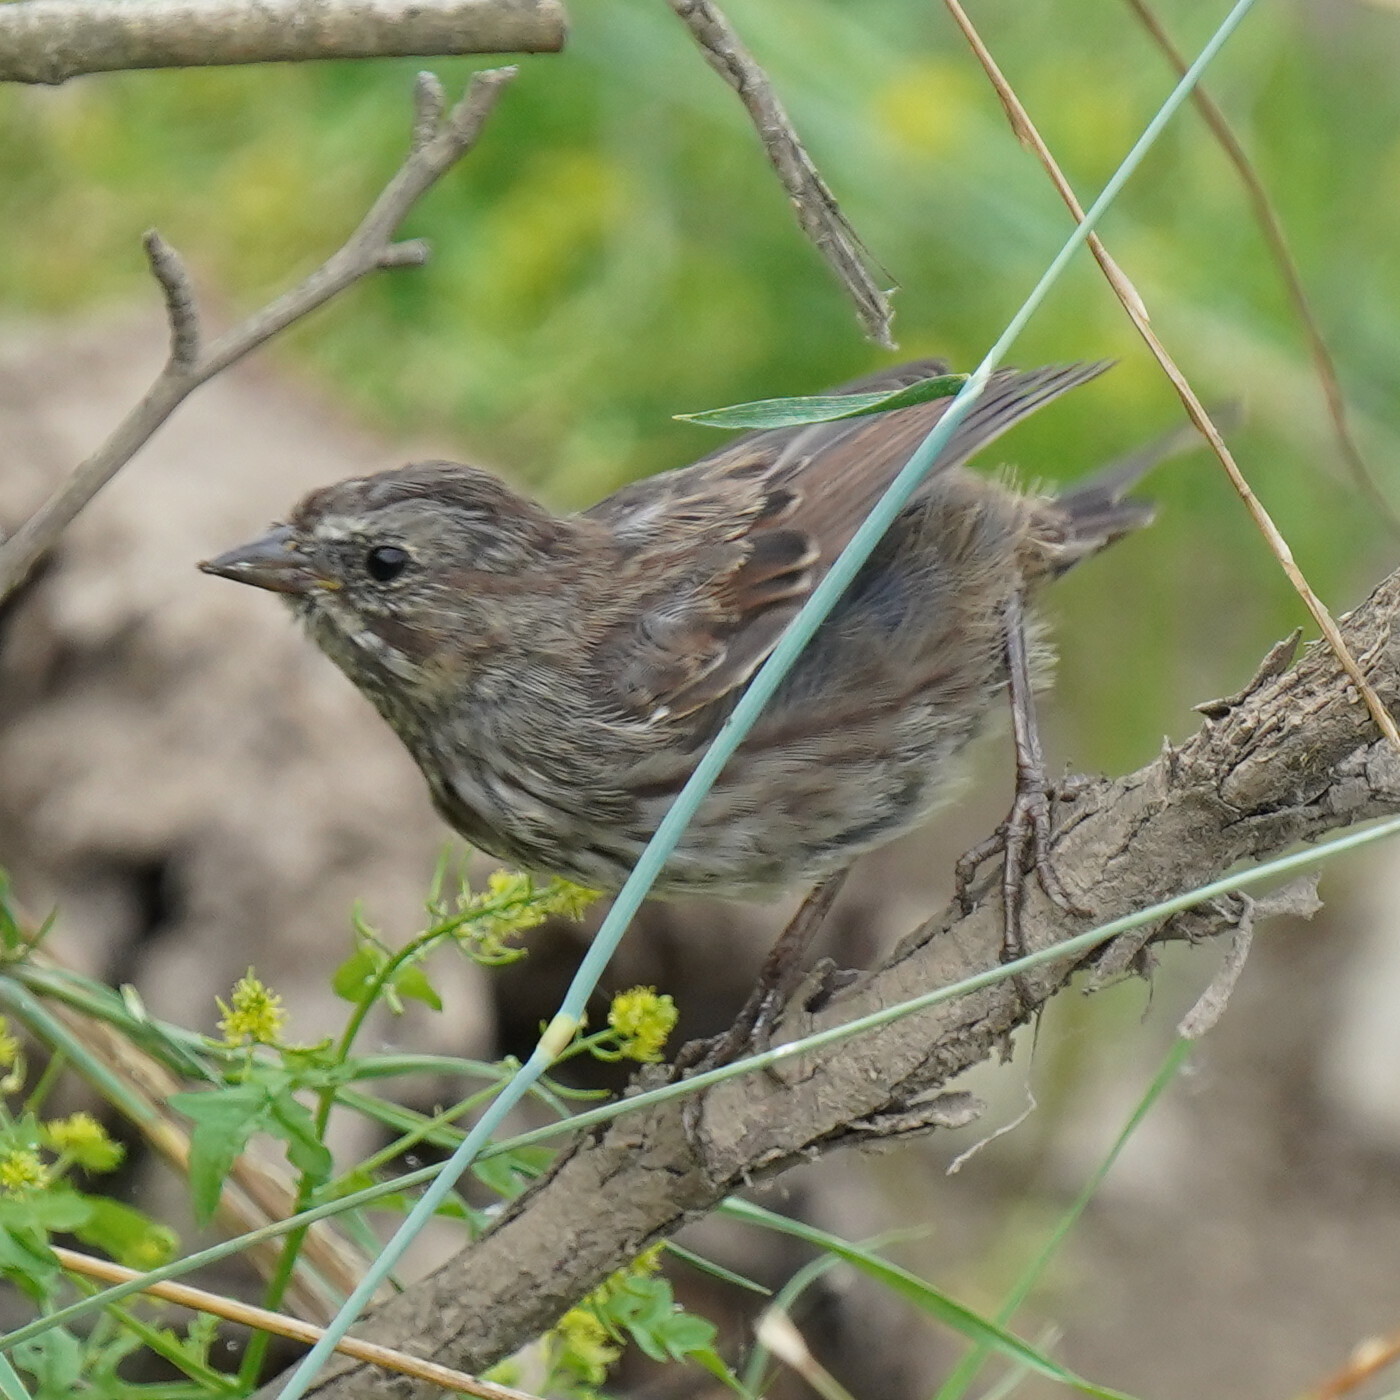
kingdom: Animalia
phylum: Chordata
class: Aves
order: Passeriformes
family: Passerellidae
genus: Melospiza
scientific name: Melospiza melodia
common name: Song sparrow
